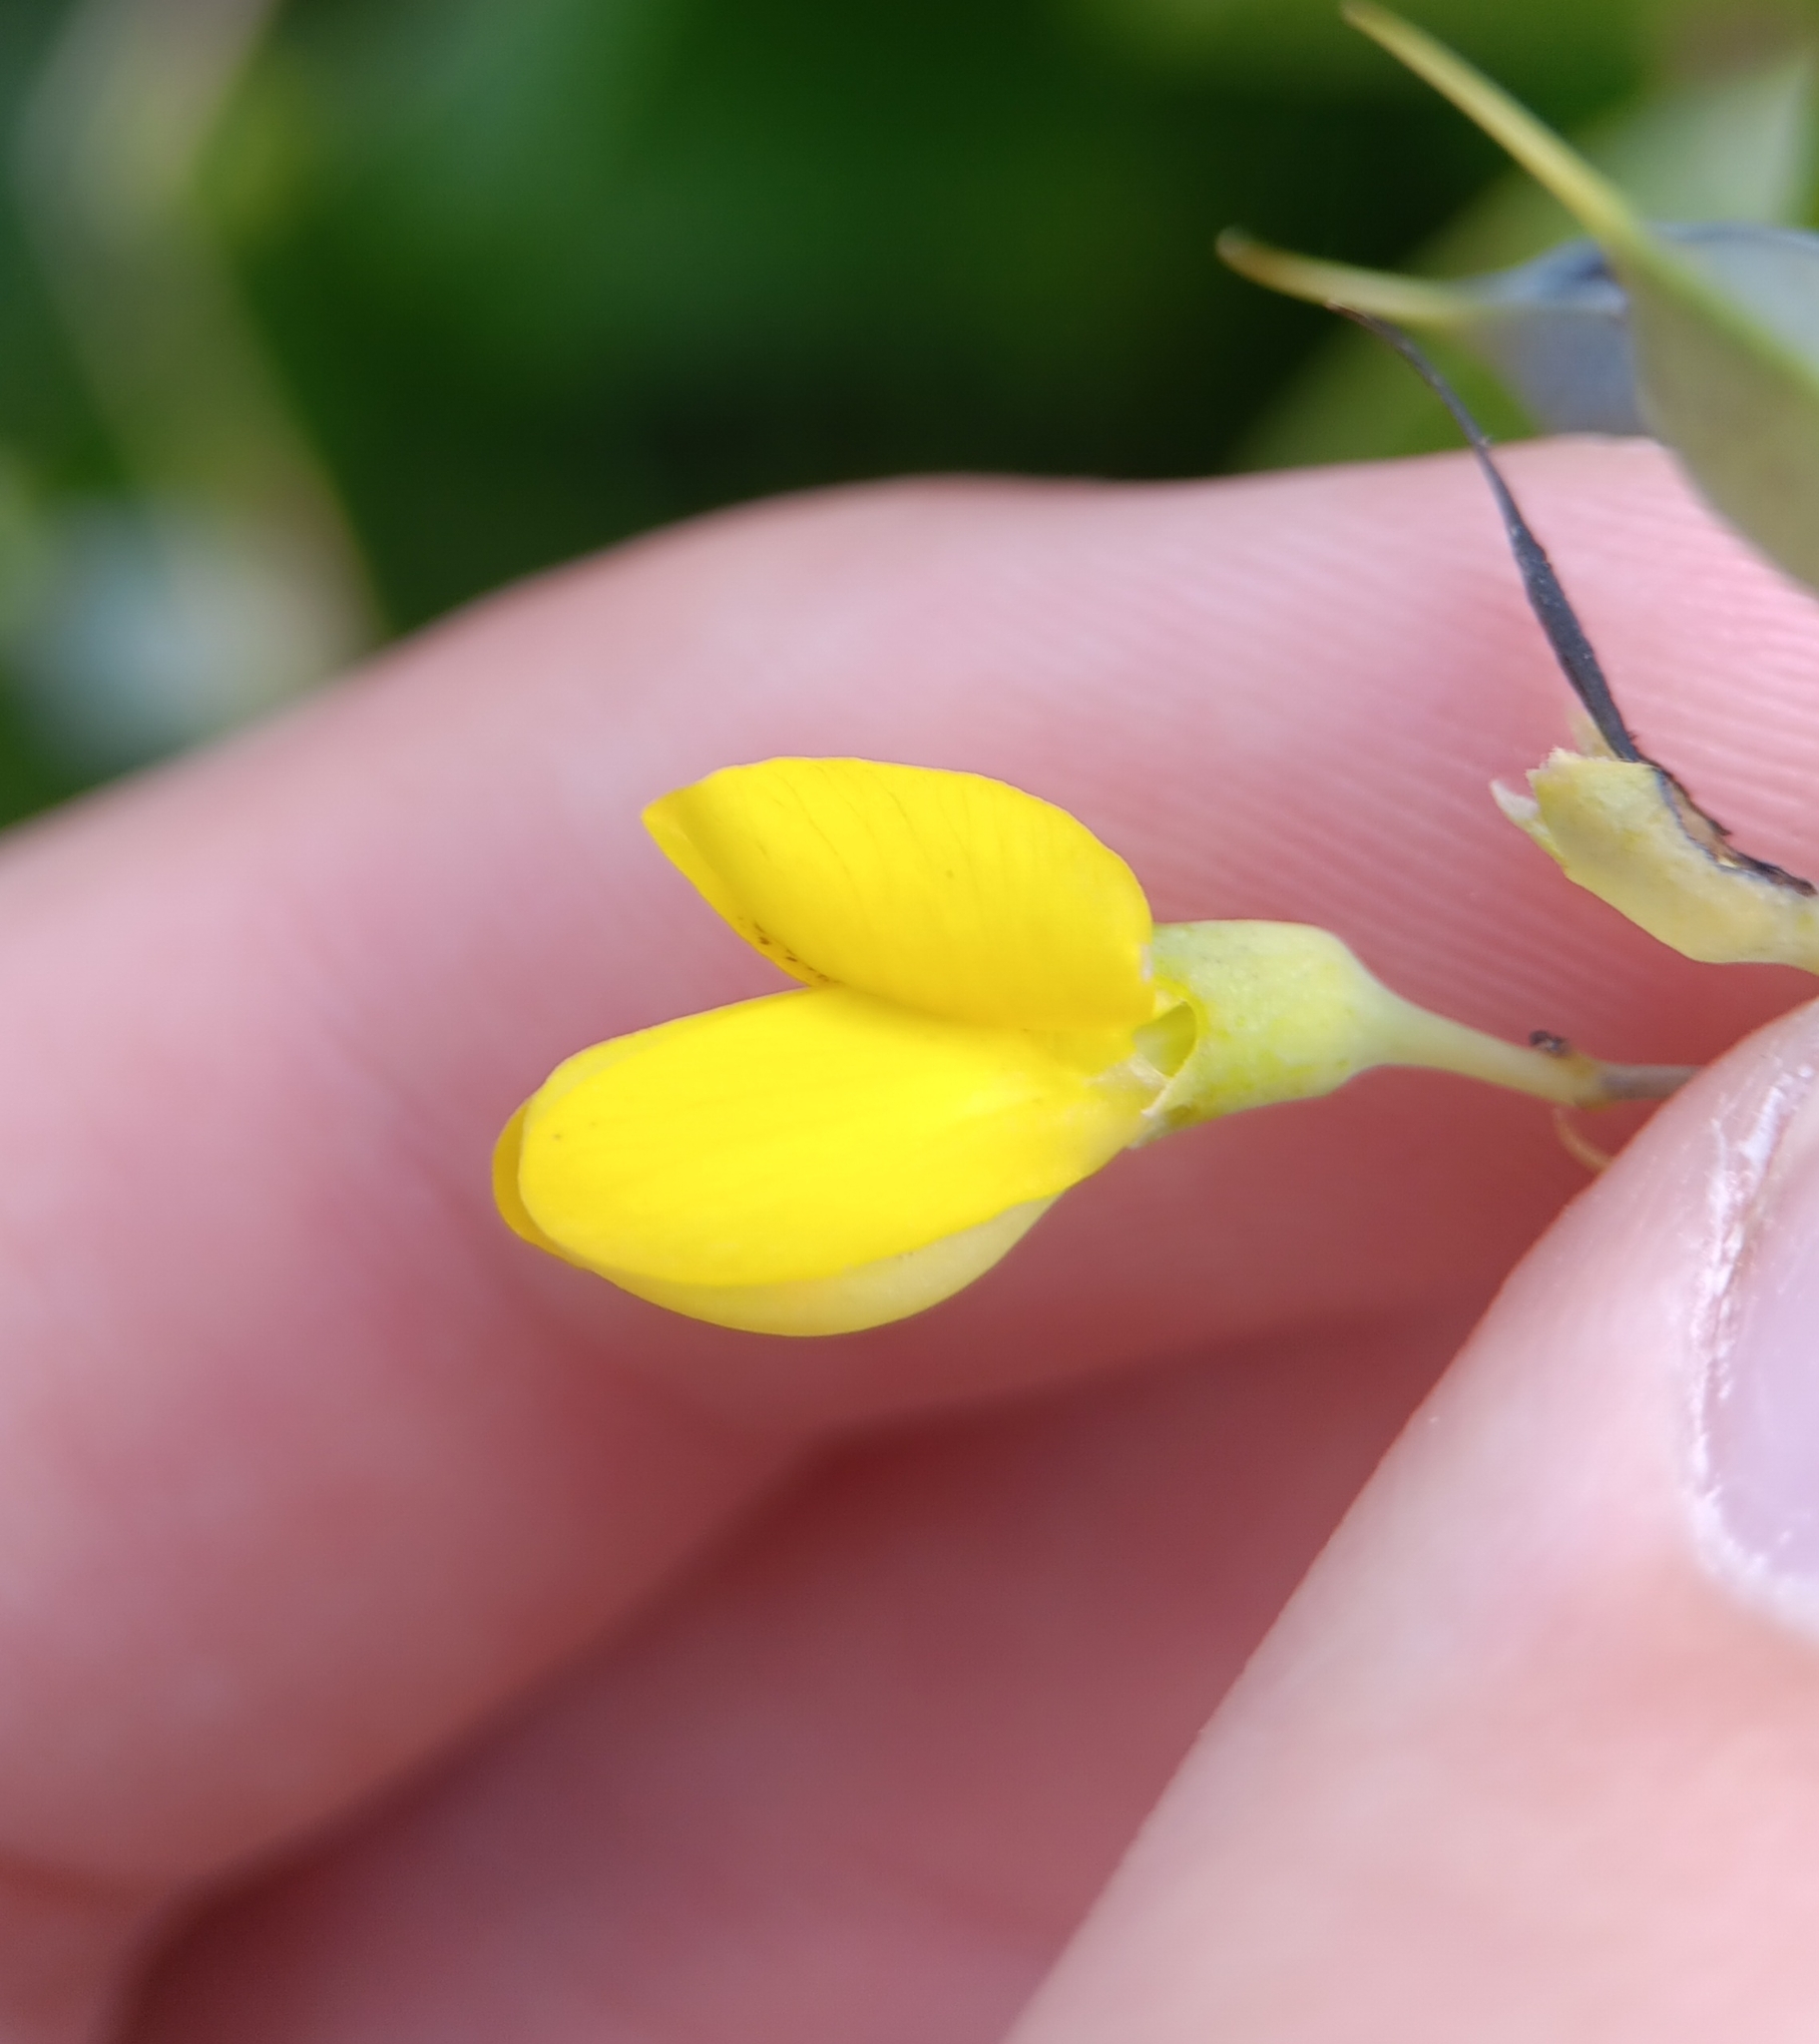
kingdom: Plantae
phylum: Tracheophyta
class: Magnoliopsida
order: Fabales
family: Fabaceae
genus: Baptisia
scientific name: Baptisia tinctoria
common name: Wild indigo
